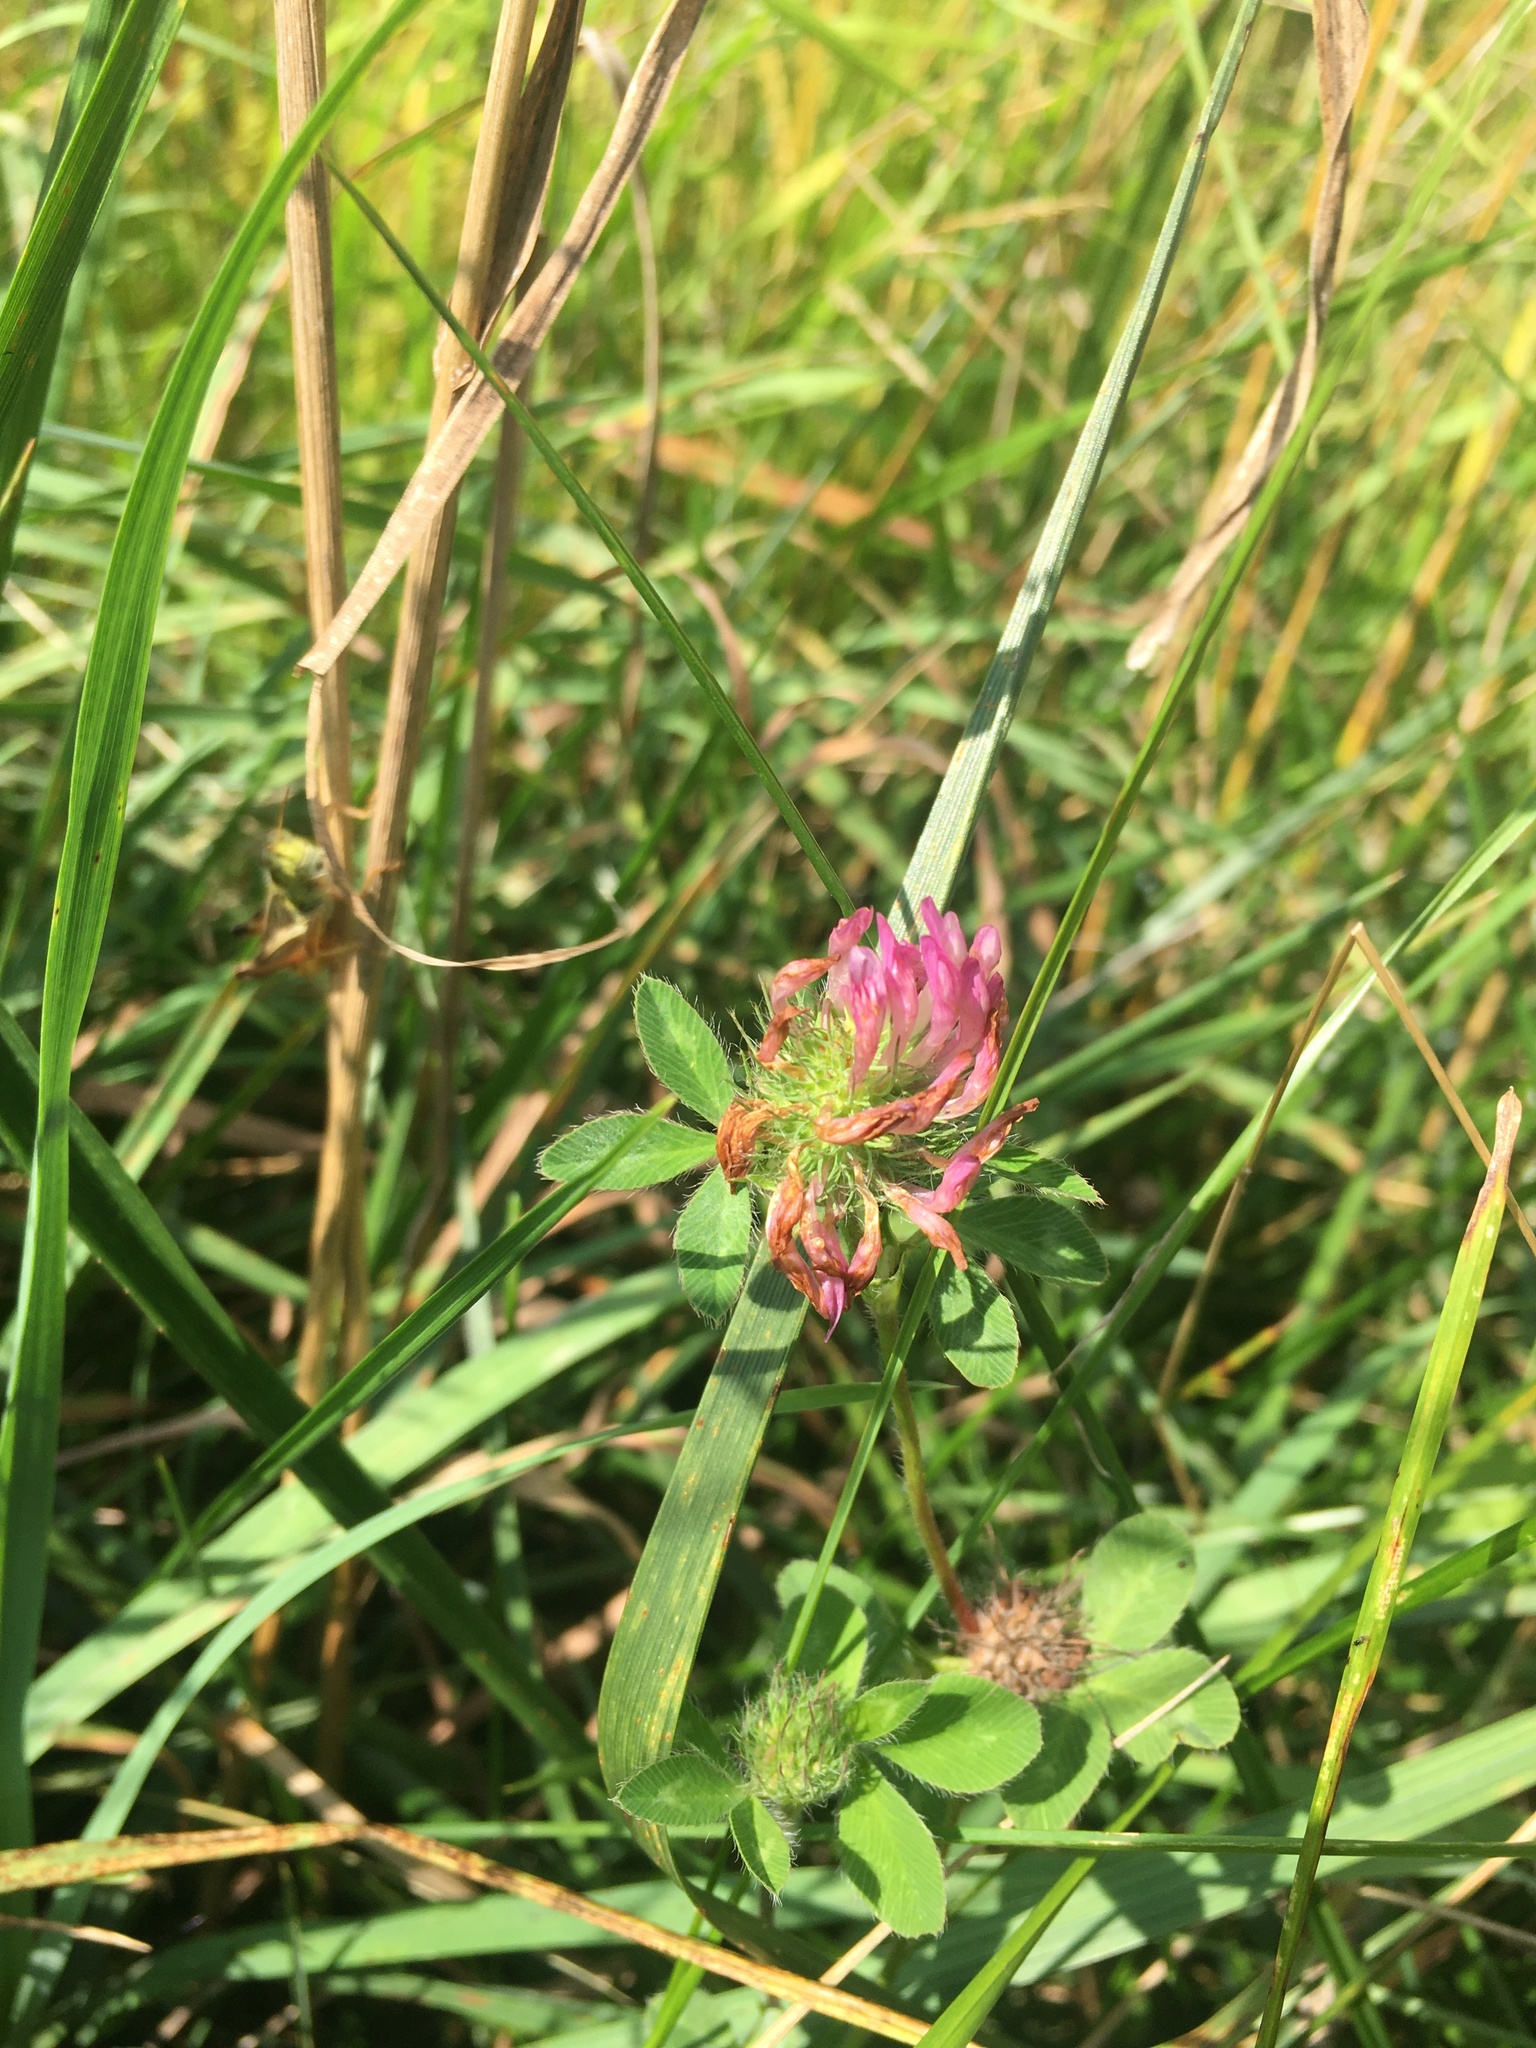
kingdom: Plantae
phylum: Tracheophyta
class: Magnoliopsida
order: Fabales
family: Fabaceae
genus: Trifolium
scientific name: Trifolium pratense
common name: Red clover
